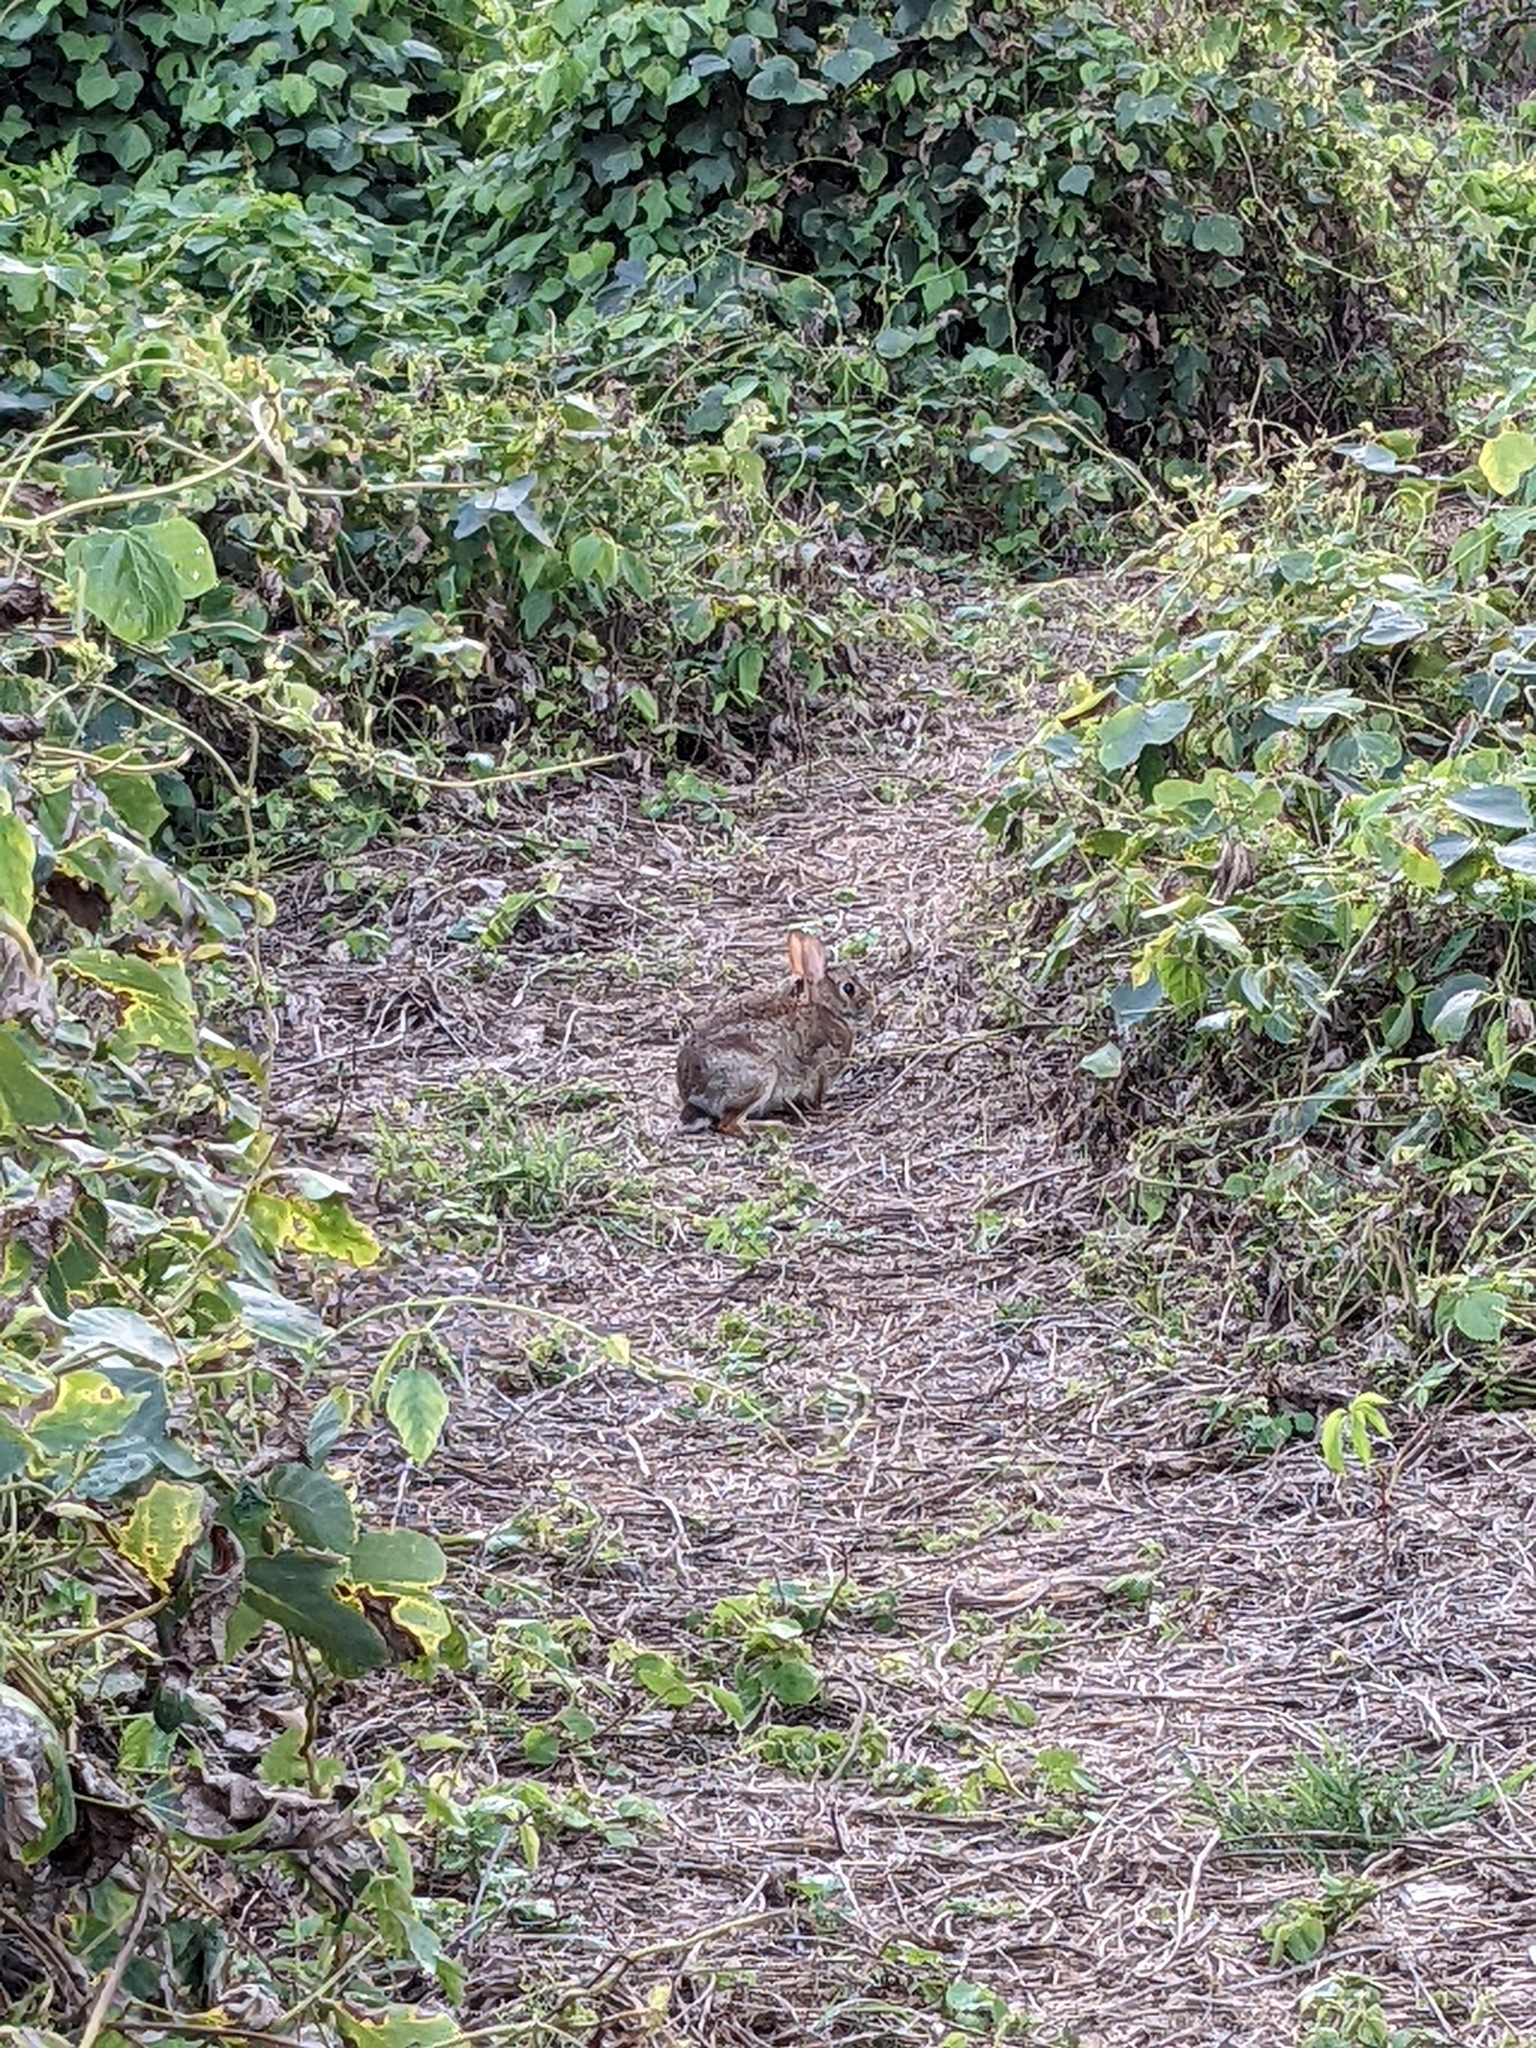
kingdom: Animalia
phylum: Chordata
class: Mammalia
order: Lagomorpha
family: Leporidae
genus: Sylvilagus
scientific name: Sylvilagus floridanus
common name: Eastern cottontail
